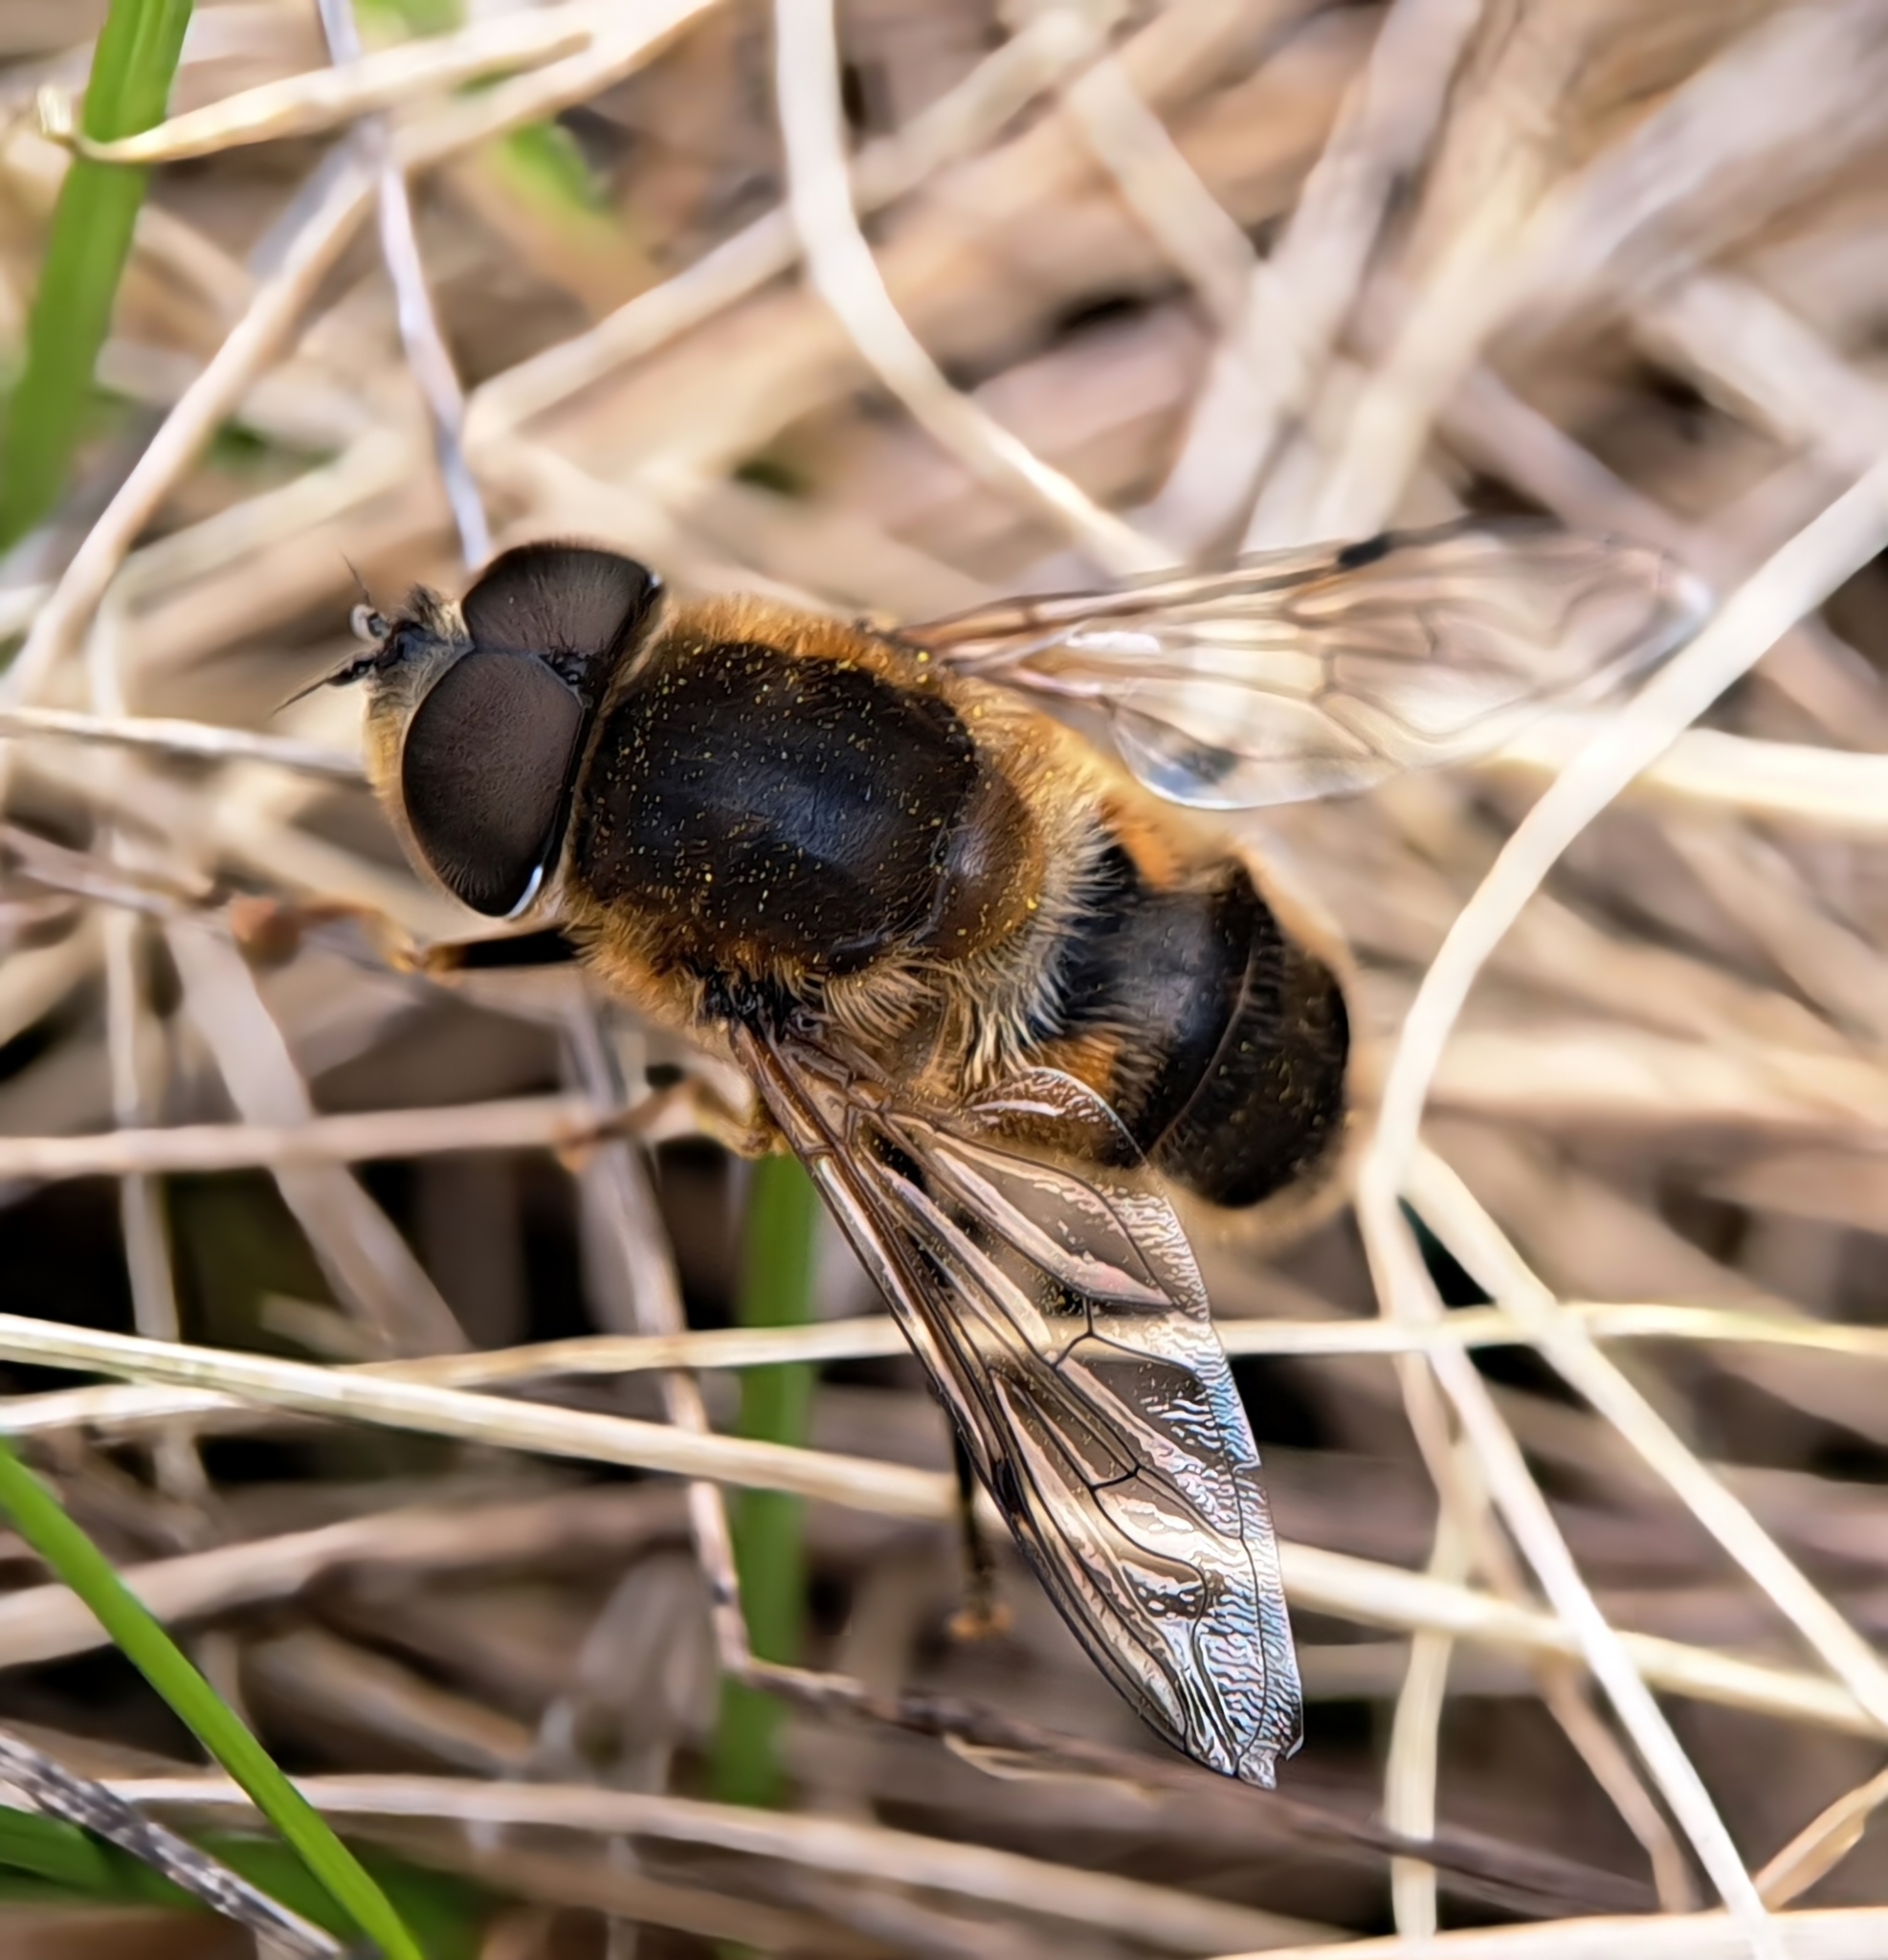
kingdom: Animalia
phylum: Arthropoda
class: Insecta
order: Diptera
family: Syrphidae
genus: Eristalis
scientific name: Eristalis pertinax
